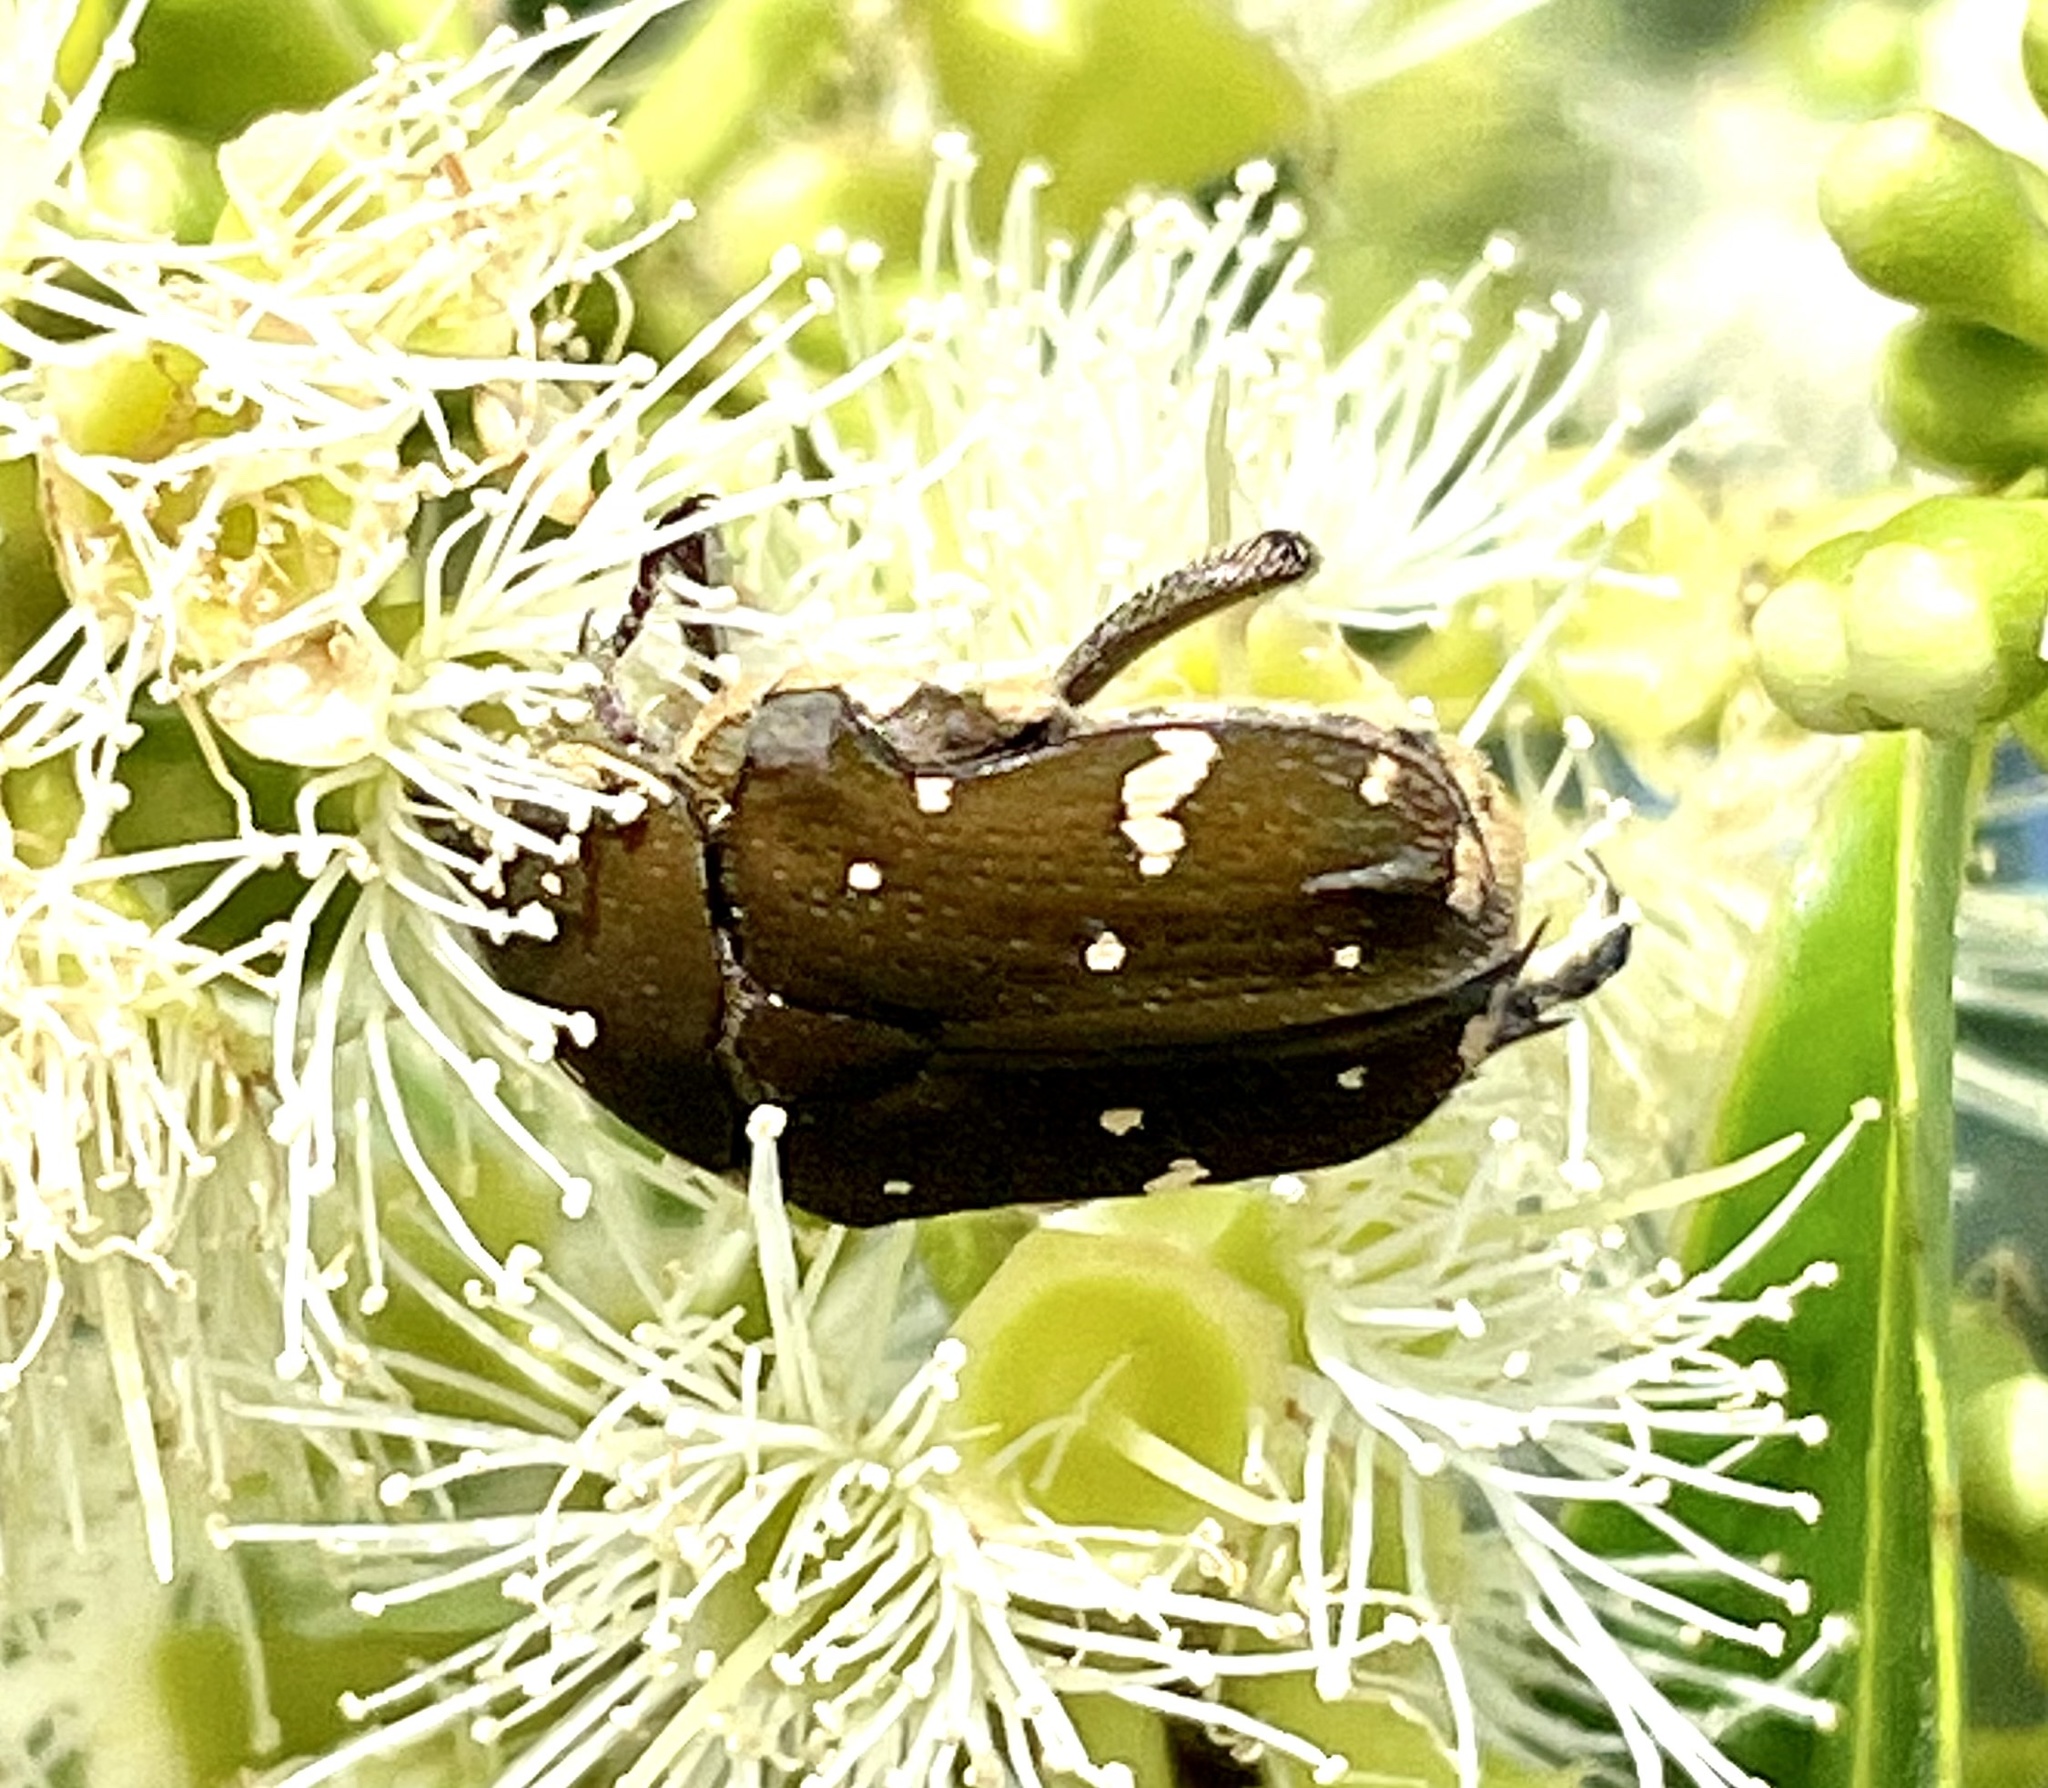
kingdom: Animalia
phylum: Arthropoda
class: Insecta
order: Coleoptera
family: Scarabaeidae
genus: Glycyphana
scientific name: Glycyphana stolata
